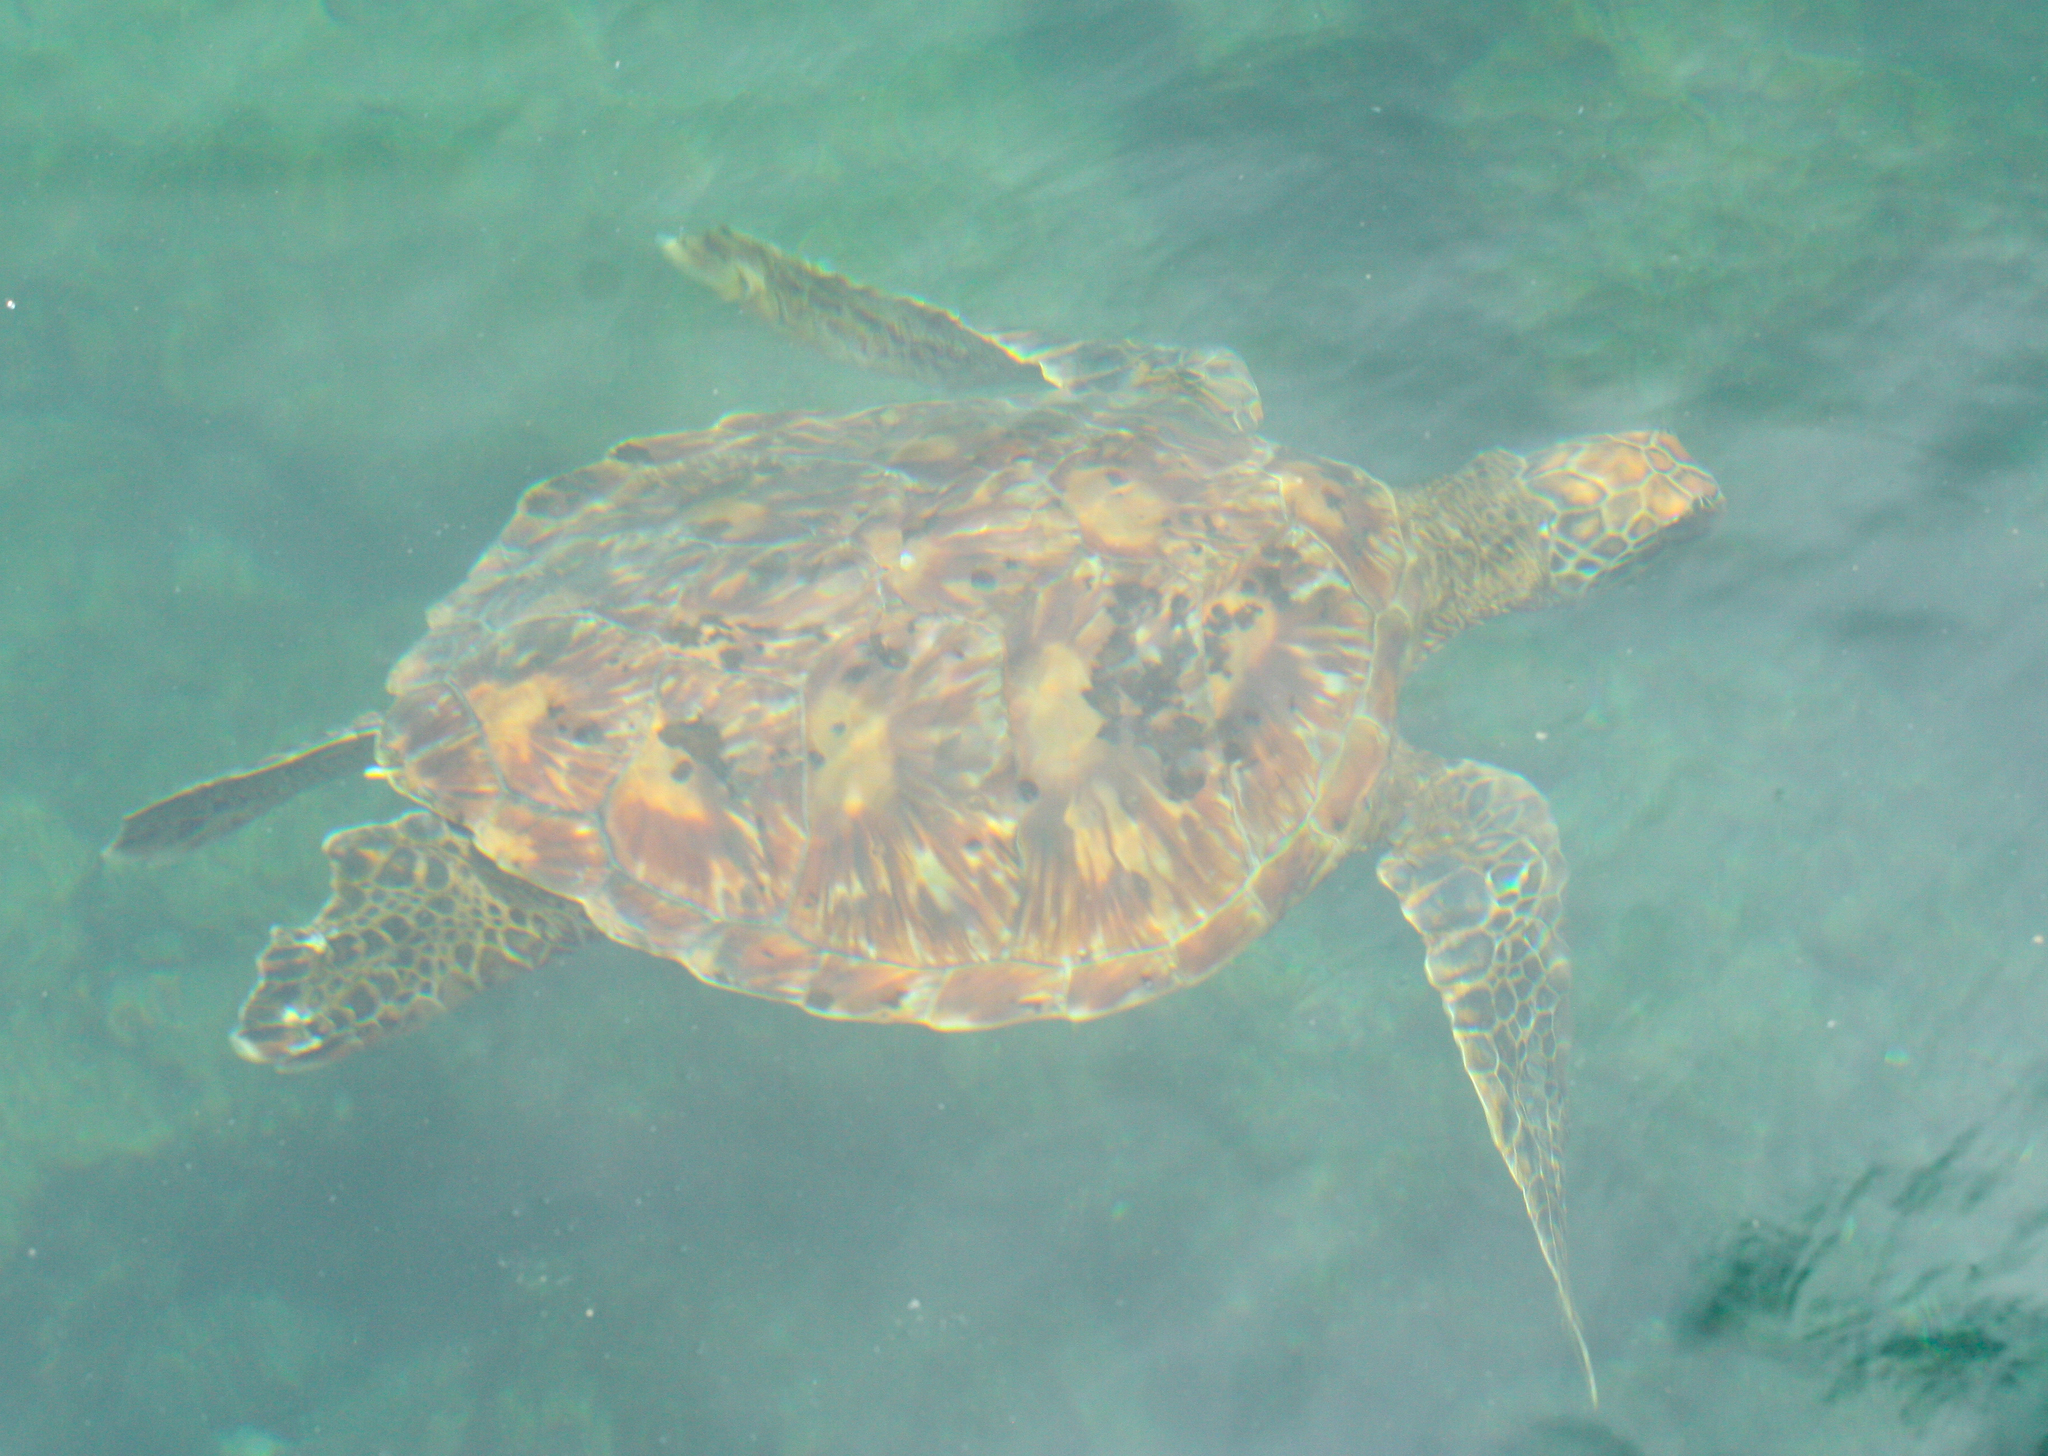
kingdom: Animalia
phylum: Chordata
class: Testudines
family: Cheloniidae
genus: Chelonia
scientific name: Chelonia mydas
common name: Green turtle
